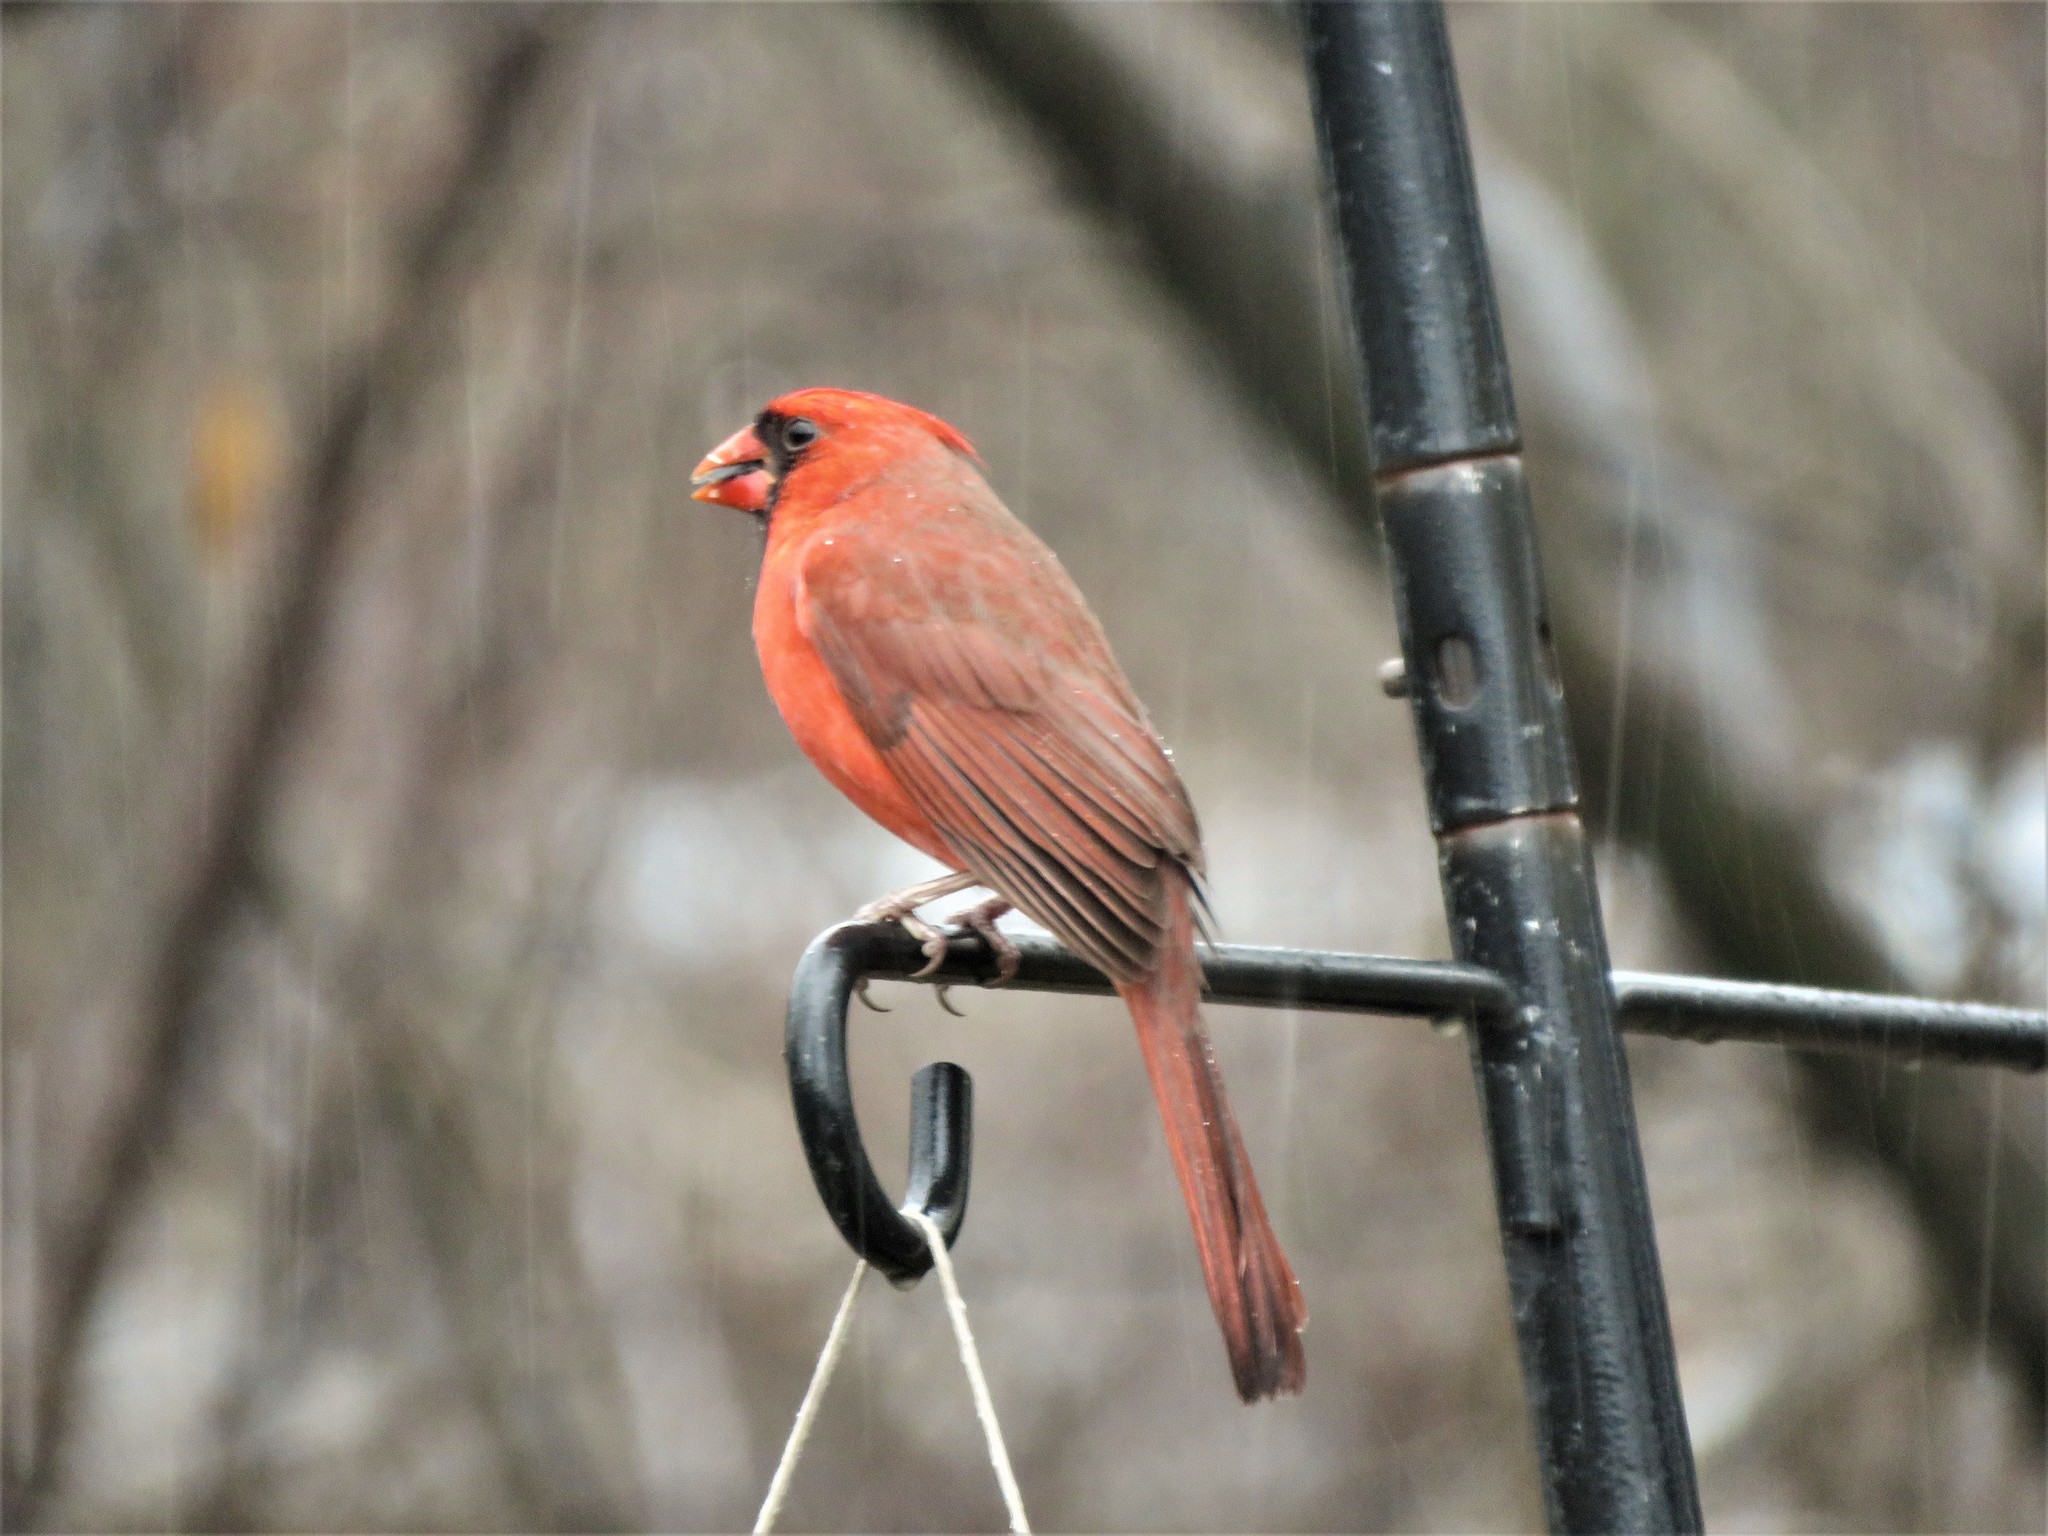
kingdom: Animalia
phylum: Chordata
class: Aves
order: Passeriformes
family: Cardinalidae
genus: Cardinalis
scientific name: Cardinalis cardinalis
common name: Northern cardinal
